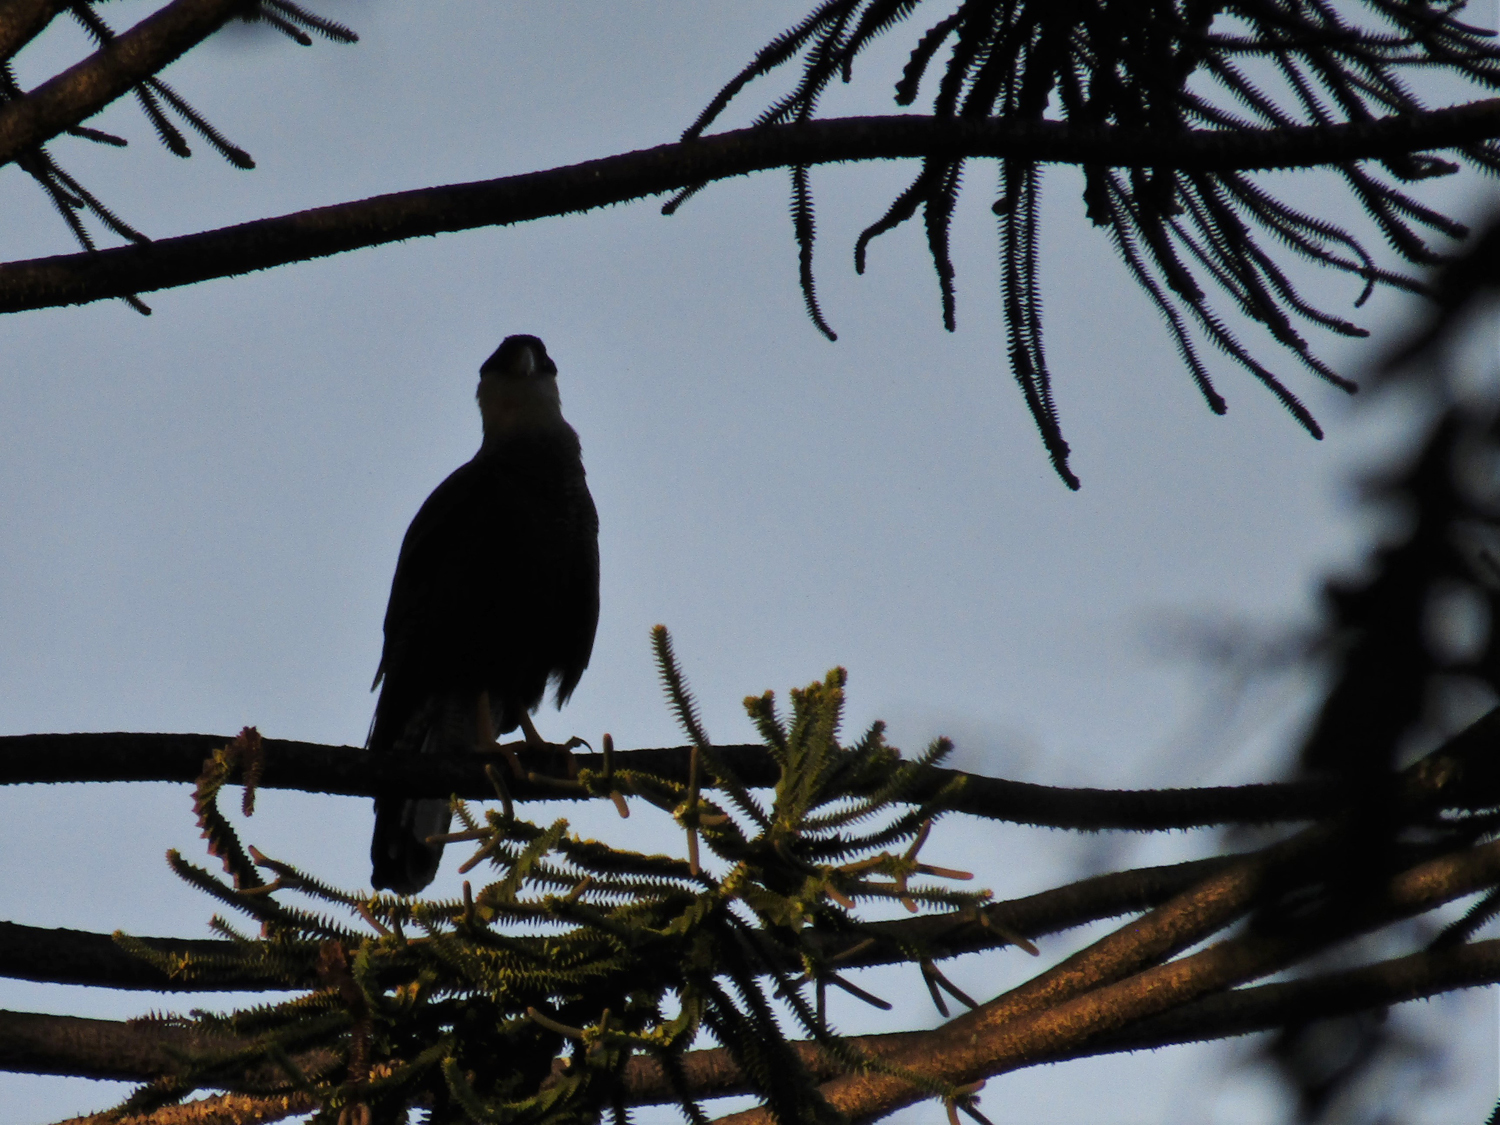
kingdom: Animalia
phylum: Chordata
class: Aves
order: Falconiformes
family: Falconidae
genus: Caracara
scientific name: Caracara plancus
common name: Southern caracara
